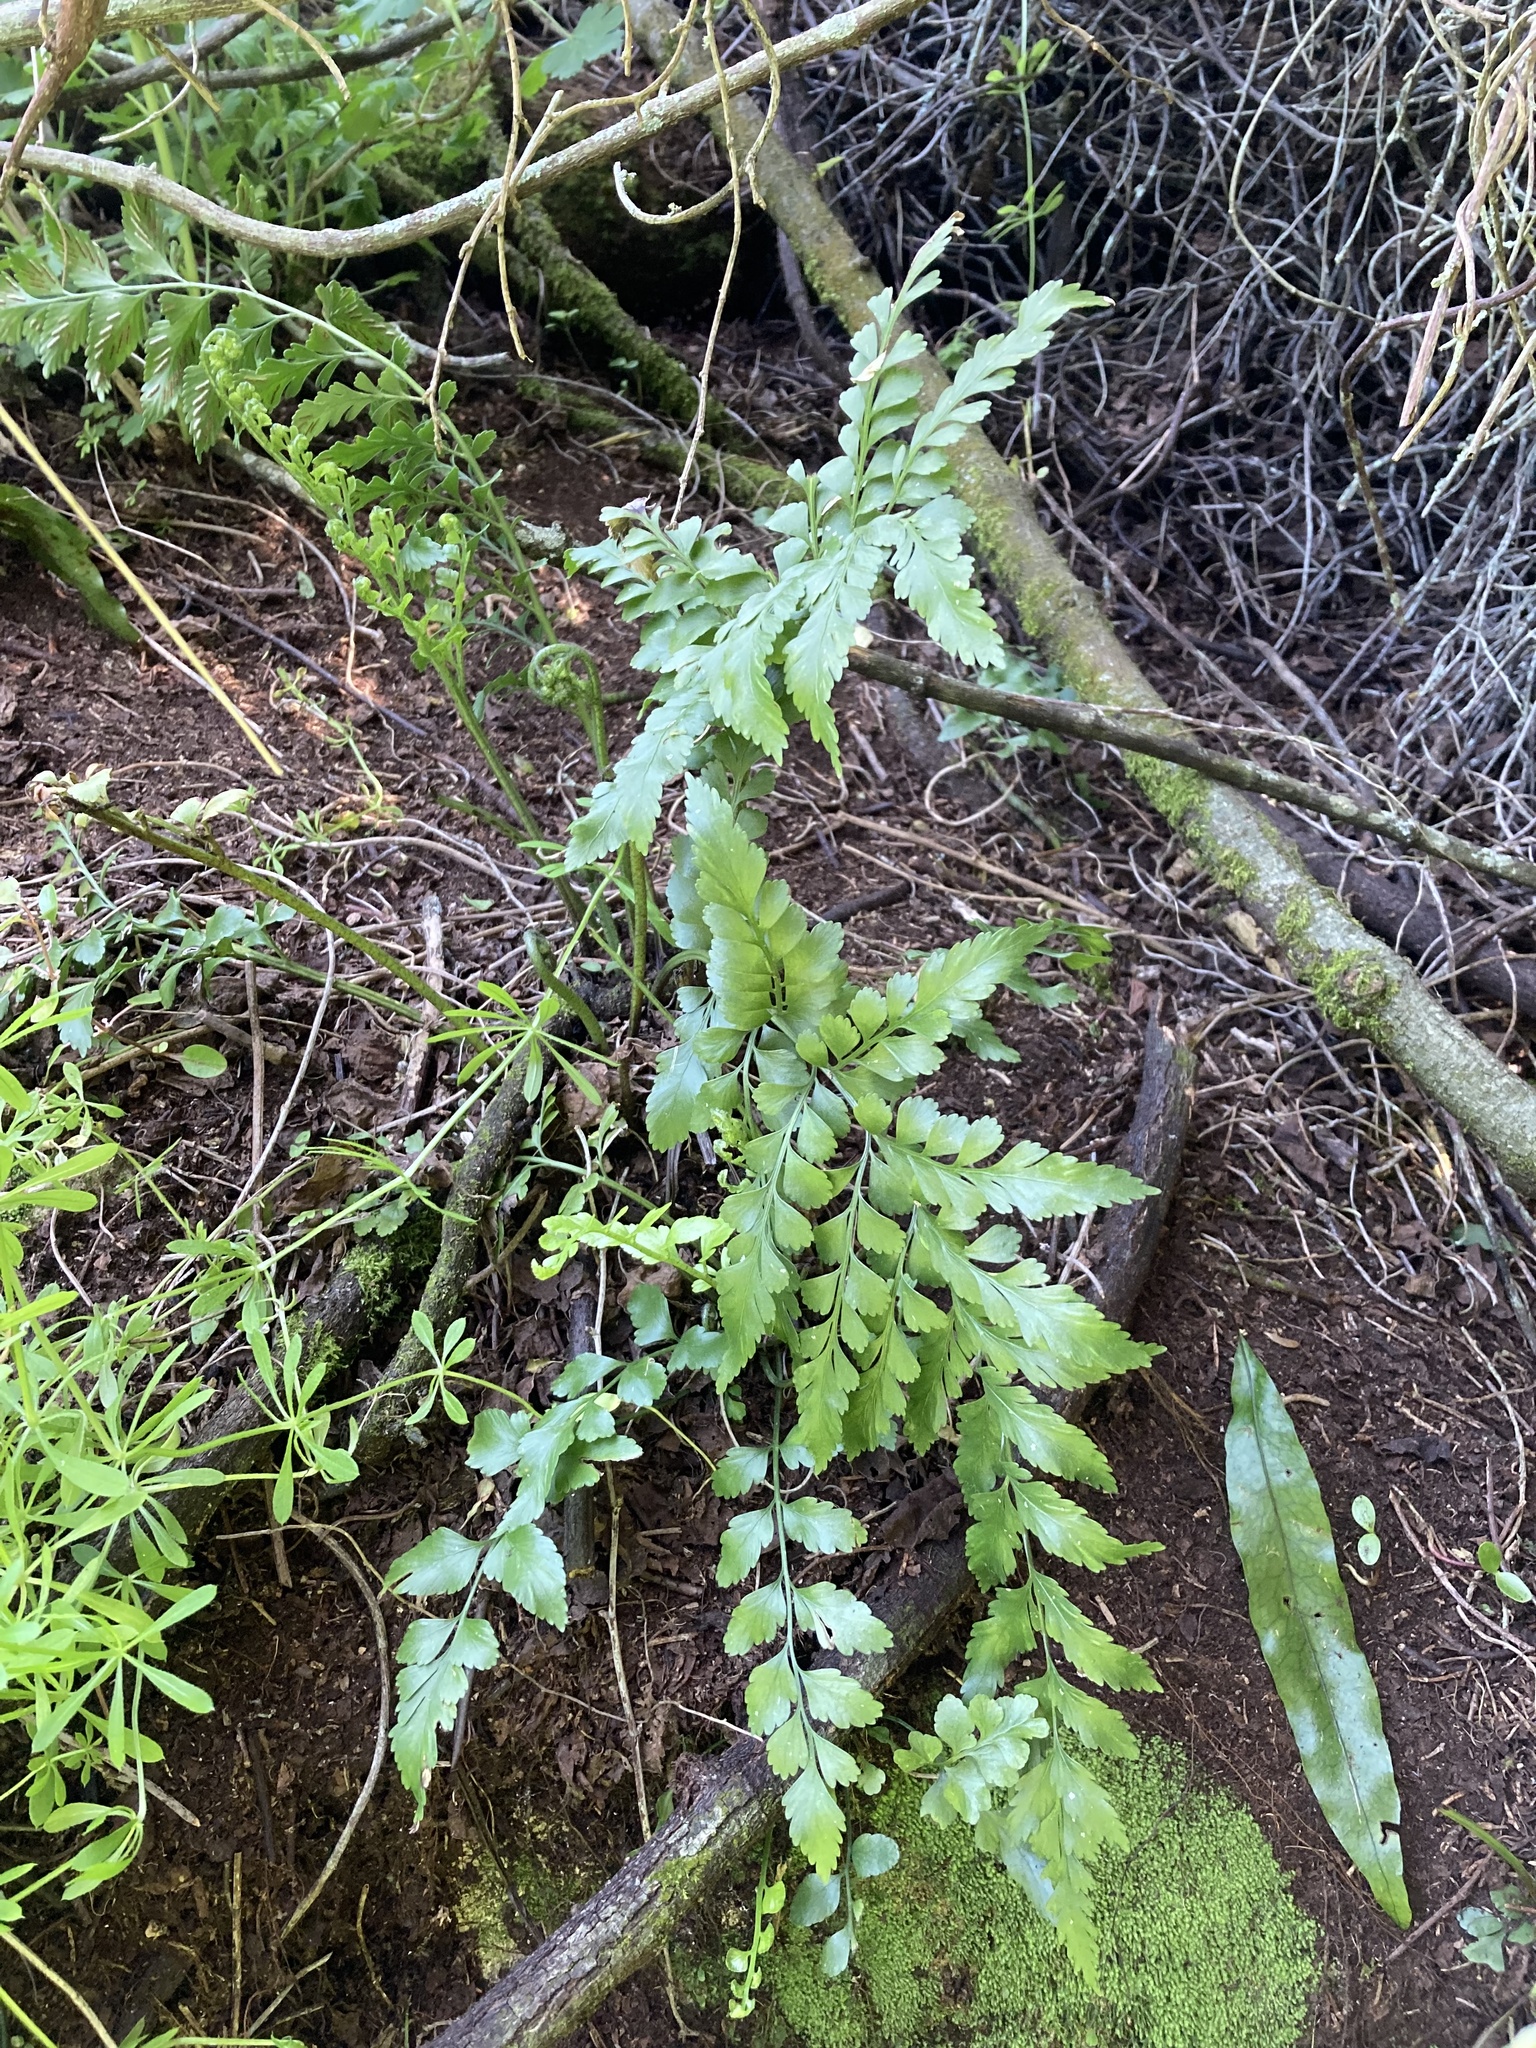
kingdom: Plantae
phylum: Tracheophyta
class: Polypodiopsida
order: Polypodiales
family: Aspleniaceae
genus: Asplenium
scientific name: Asplenium lyallii
